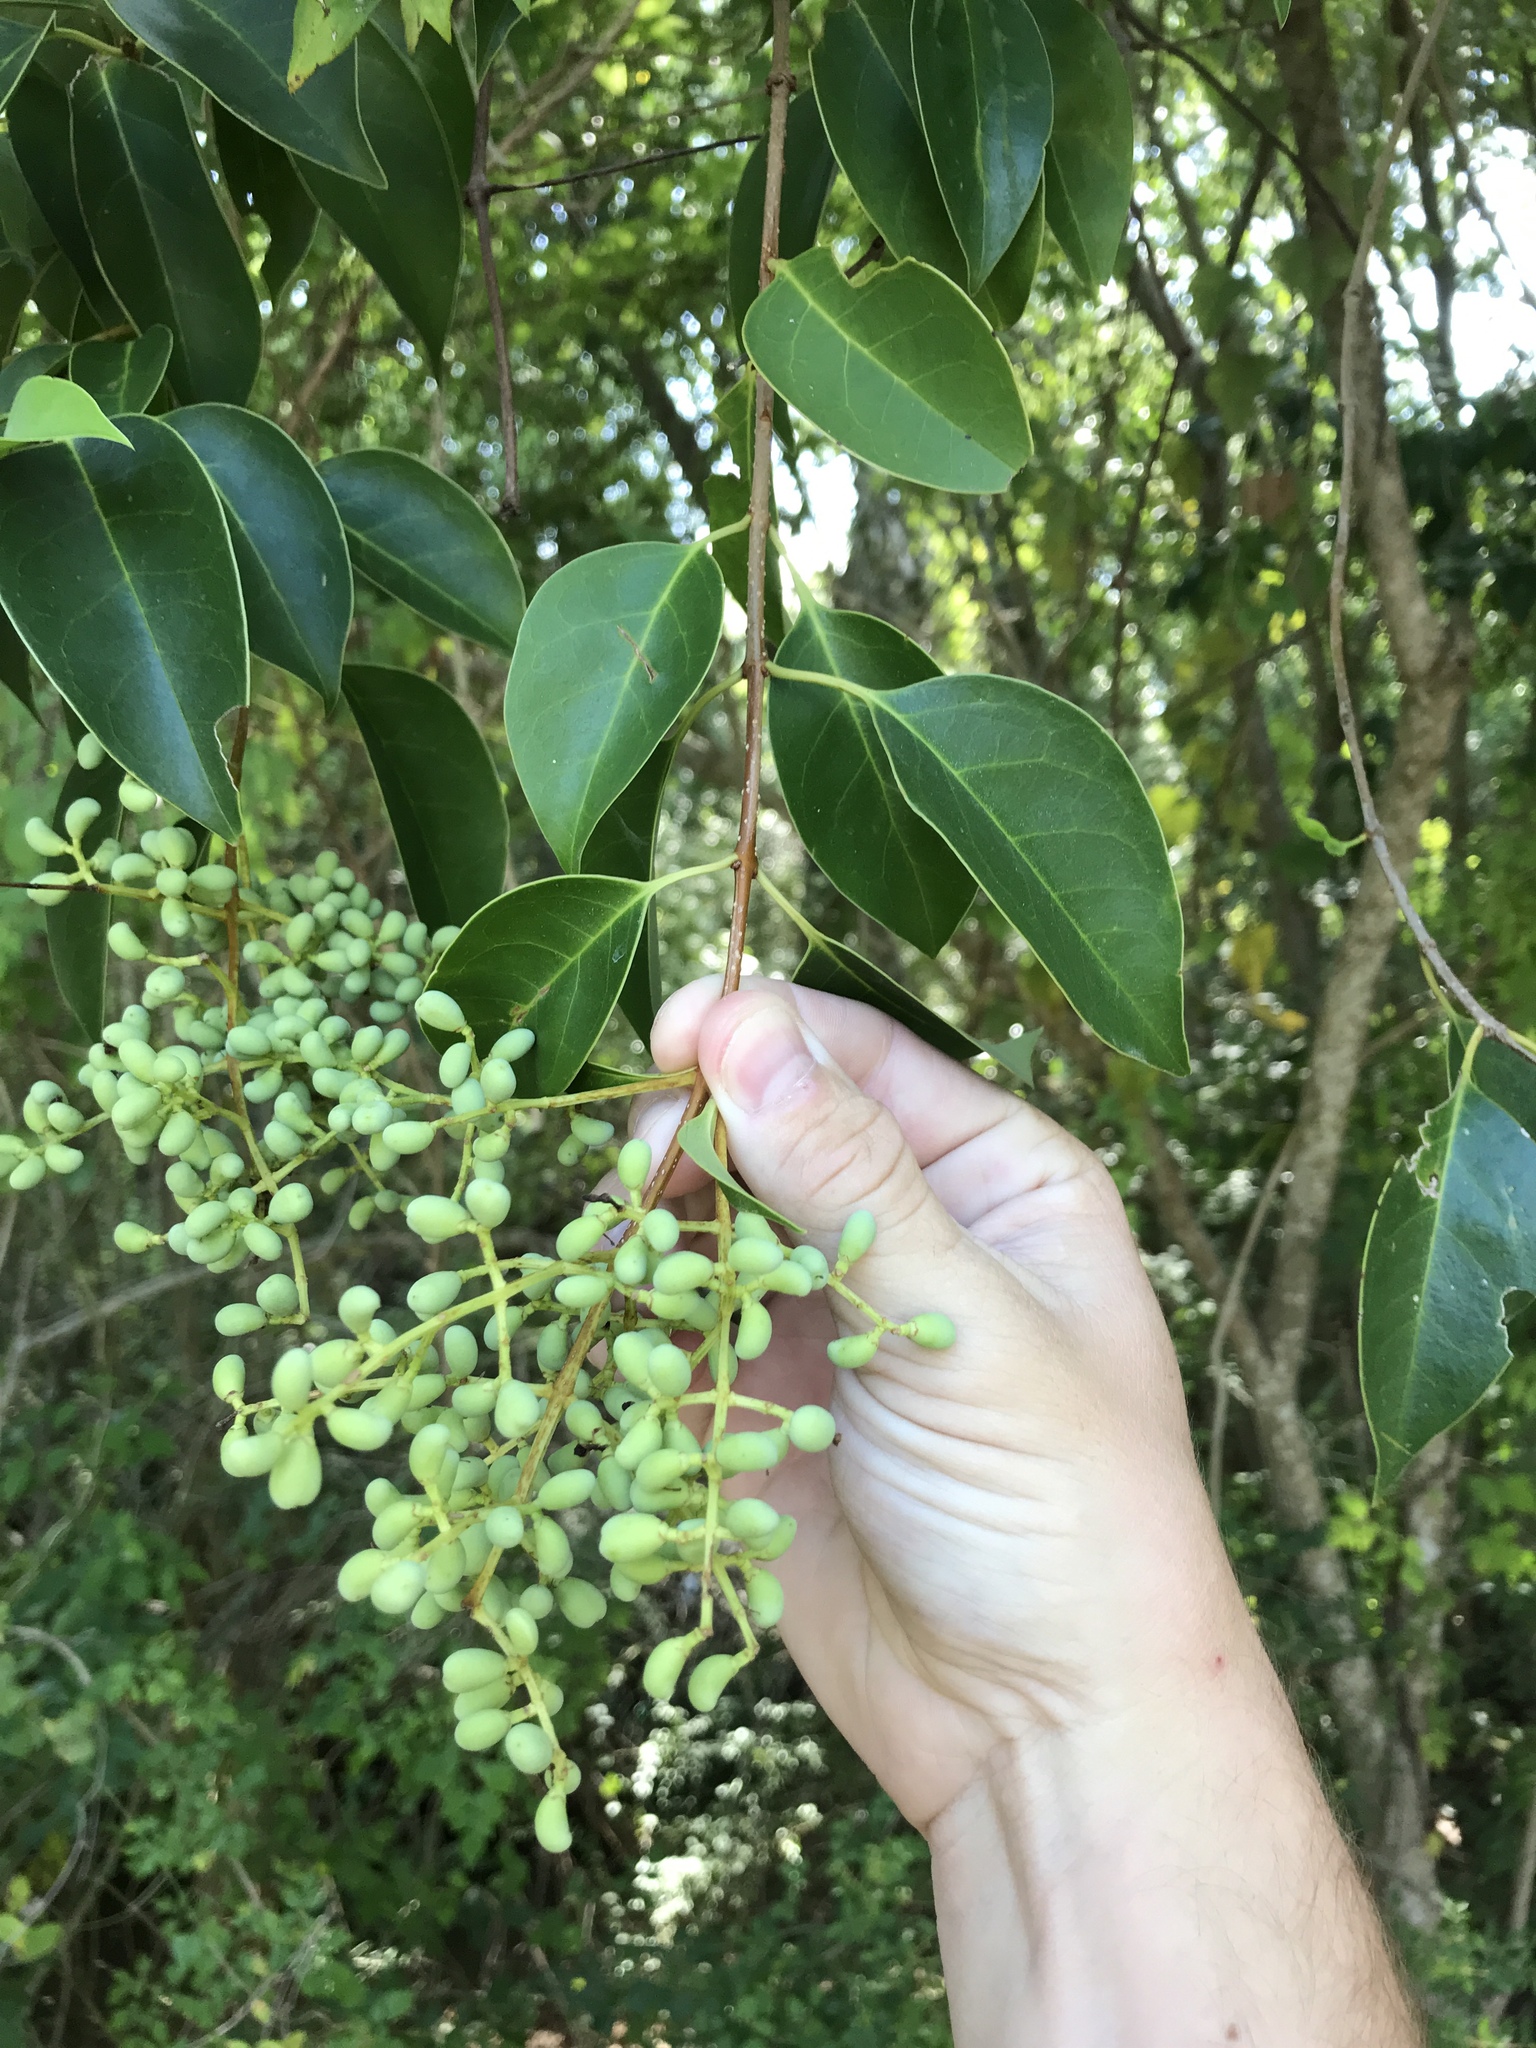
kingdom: Plantae
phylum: Tracheophyta
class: Magnoliopsida
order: Lamiales
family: Oleaceae
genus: Ligustrum
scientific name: Ligustrum lucidum
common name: Glossy privet
